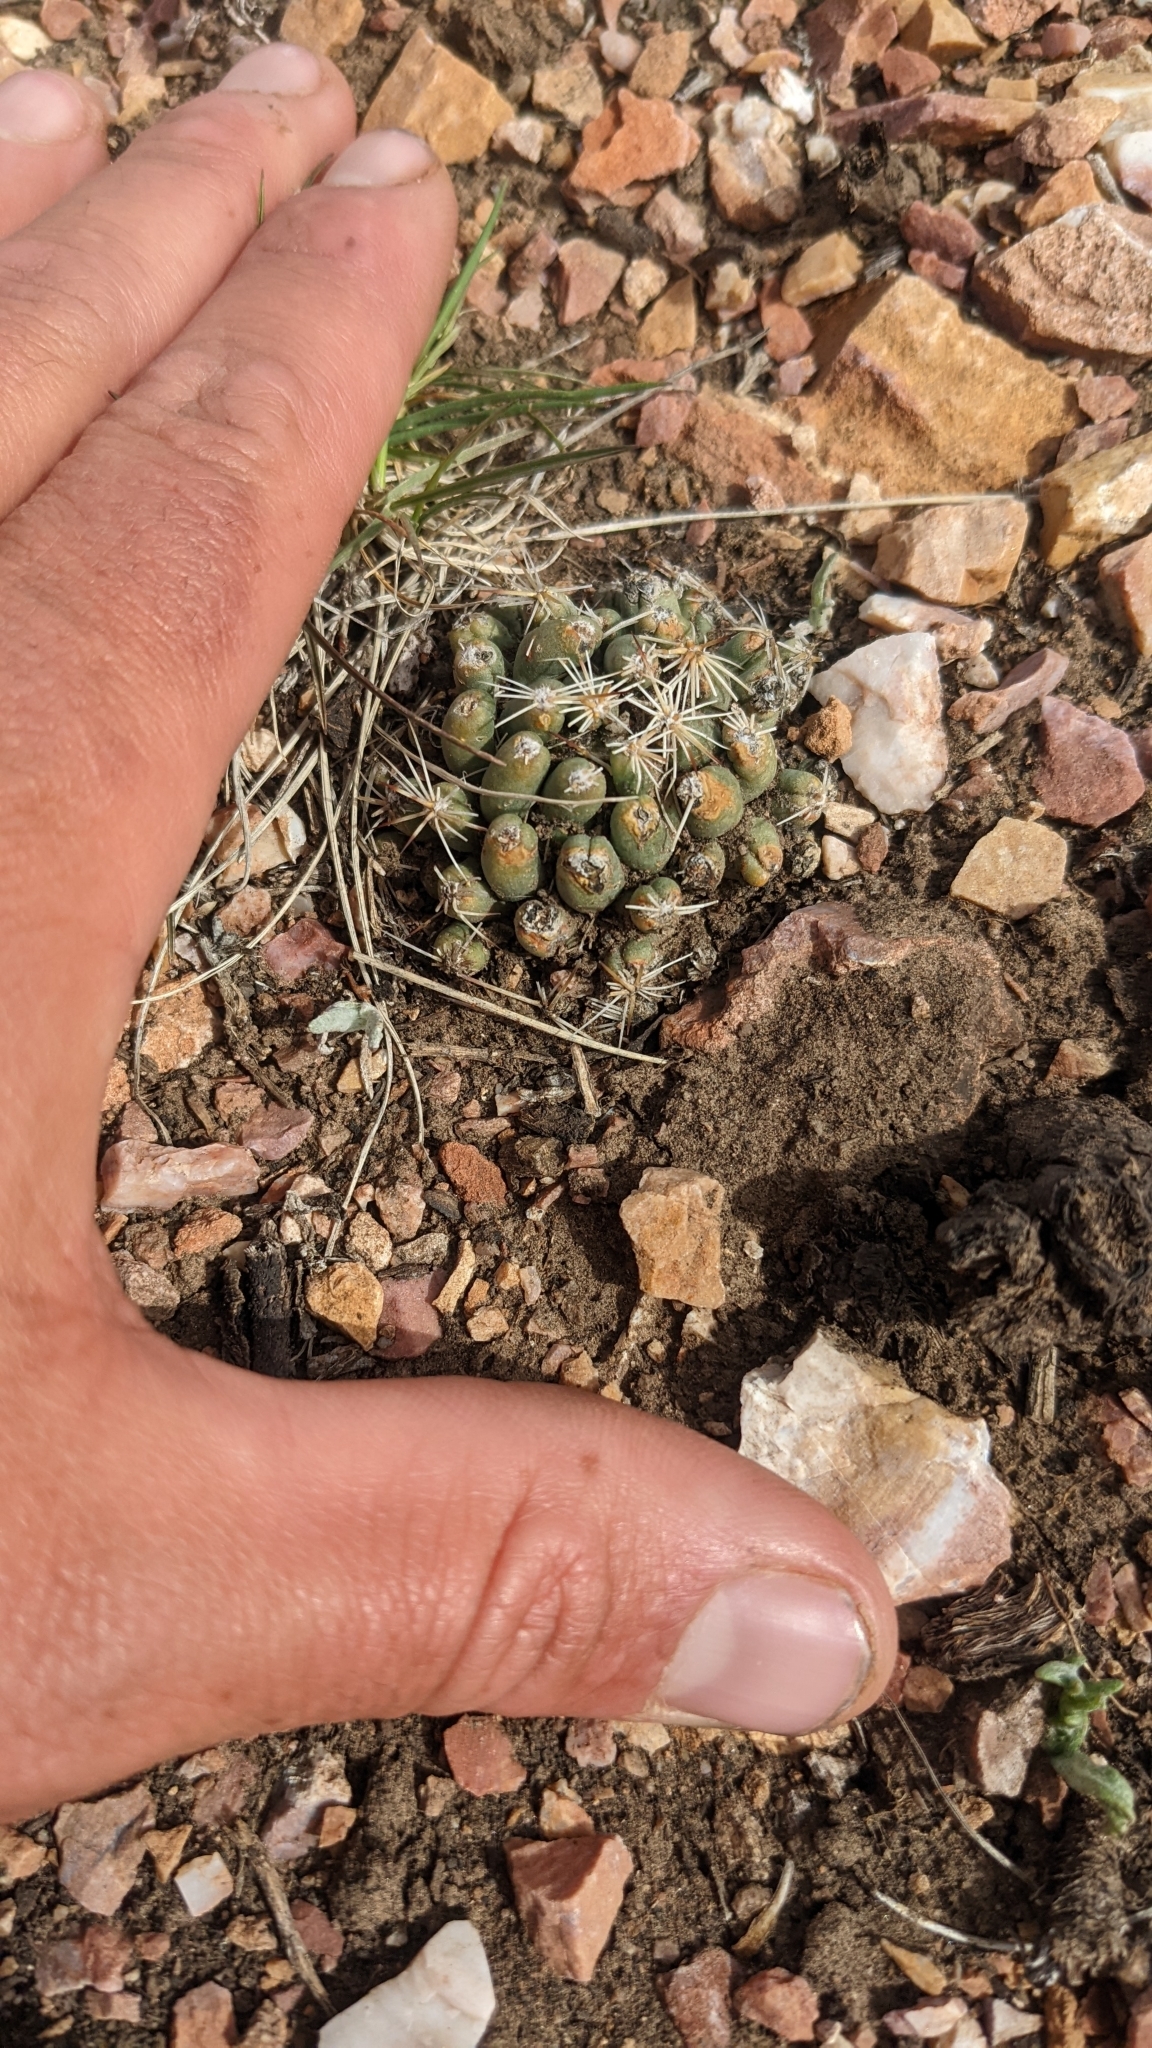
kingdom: Plantae
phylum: Tracheophyta
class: Magnoliopsida
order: Caryophyllales
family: Cactaceae
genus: Pelecyphora
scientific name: Pelecyphora vivipara
